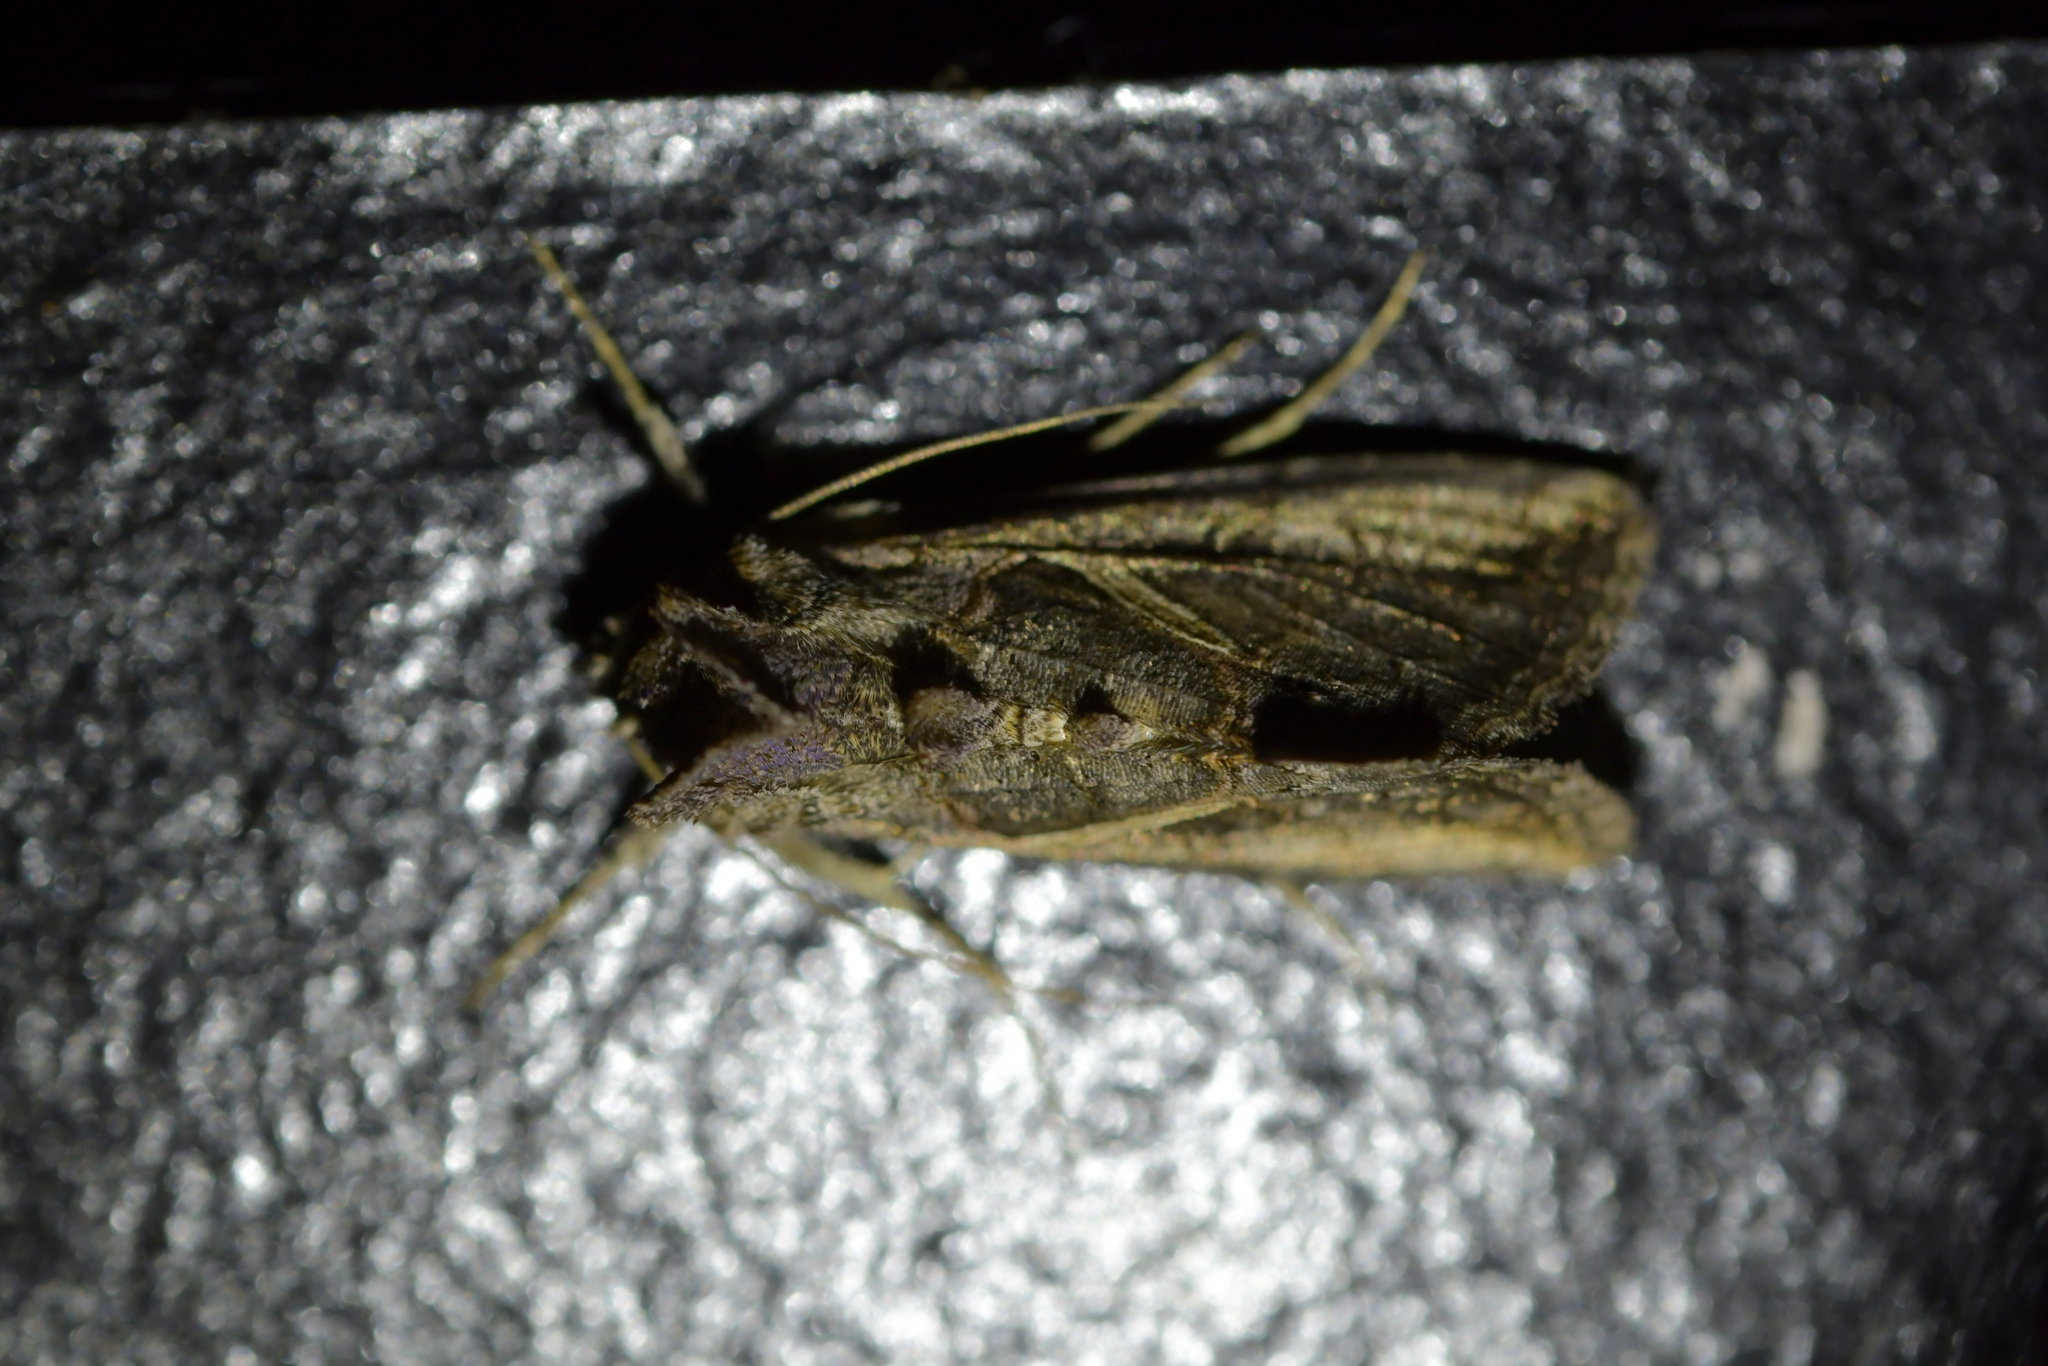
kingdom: Animalia
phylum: Arthropoda
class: Insecta
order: Lepidoptera
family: Noctuidae
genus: Ctenoplusia
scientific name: Ctenoplusia albostriata
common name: Moth
